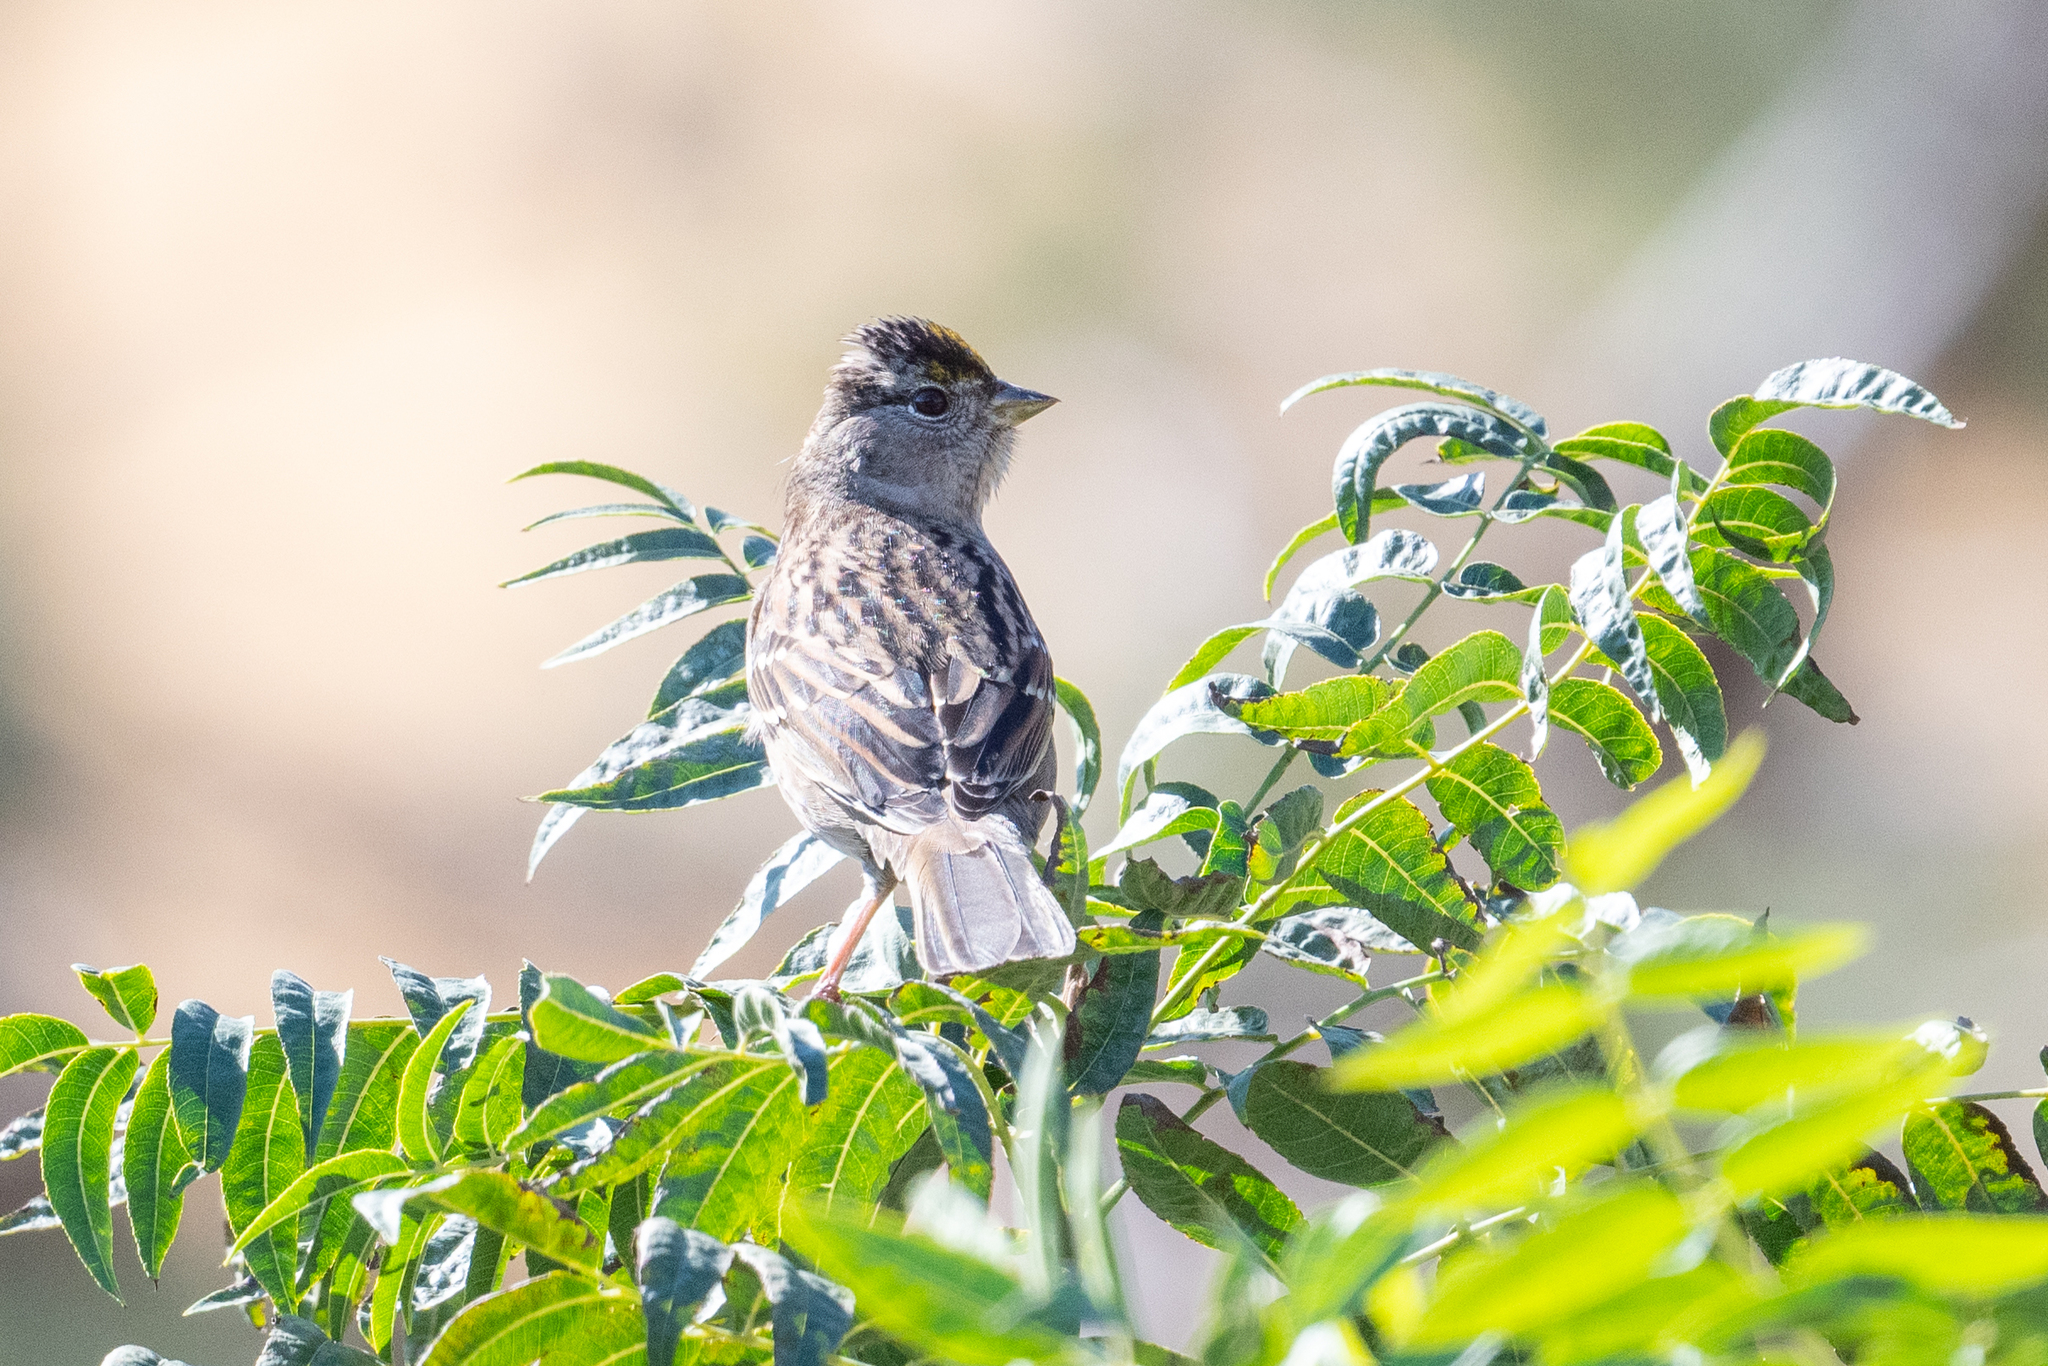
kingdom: Animalia
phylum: Chordata
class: Aves
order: Passeriformes
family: Passerellidae
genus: Zonotrichia
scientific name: Zonotrichia atricapilla
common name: Golden-crowned sparrow
